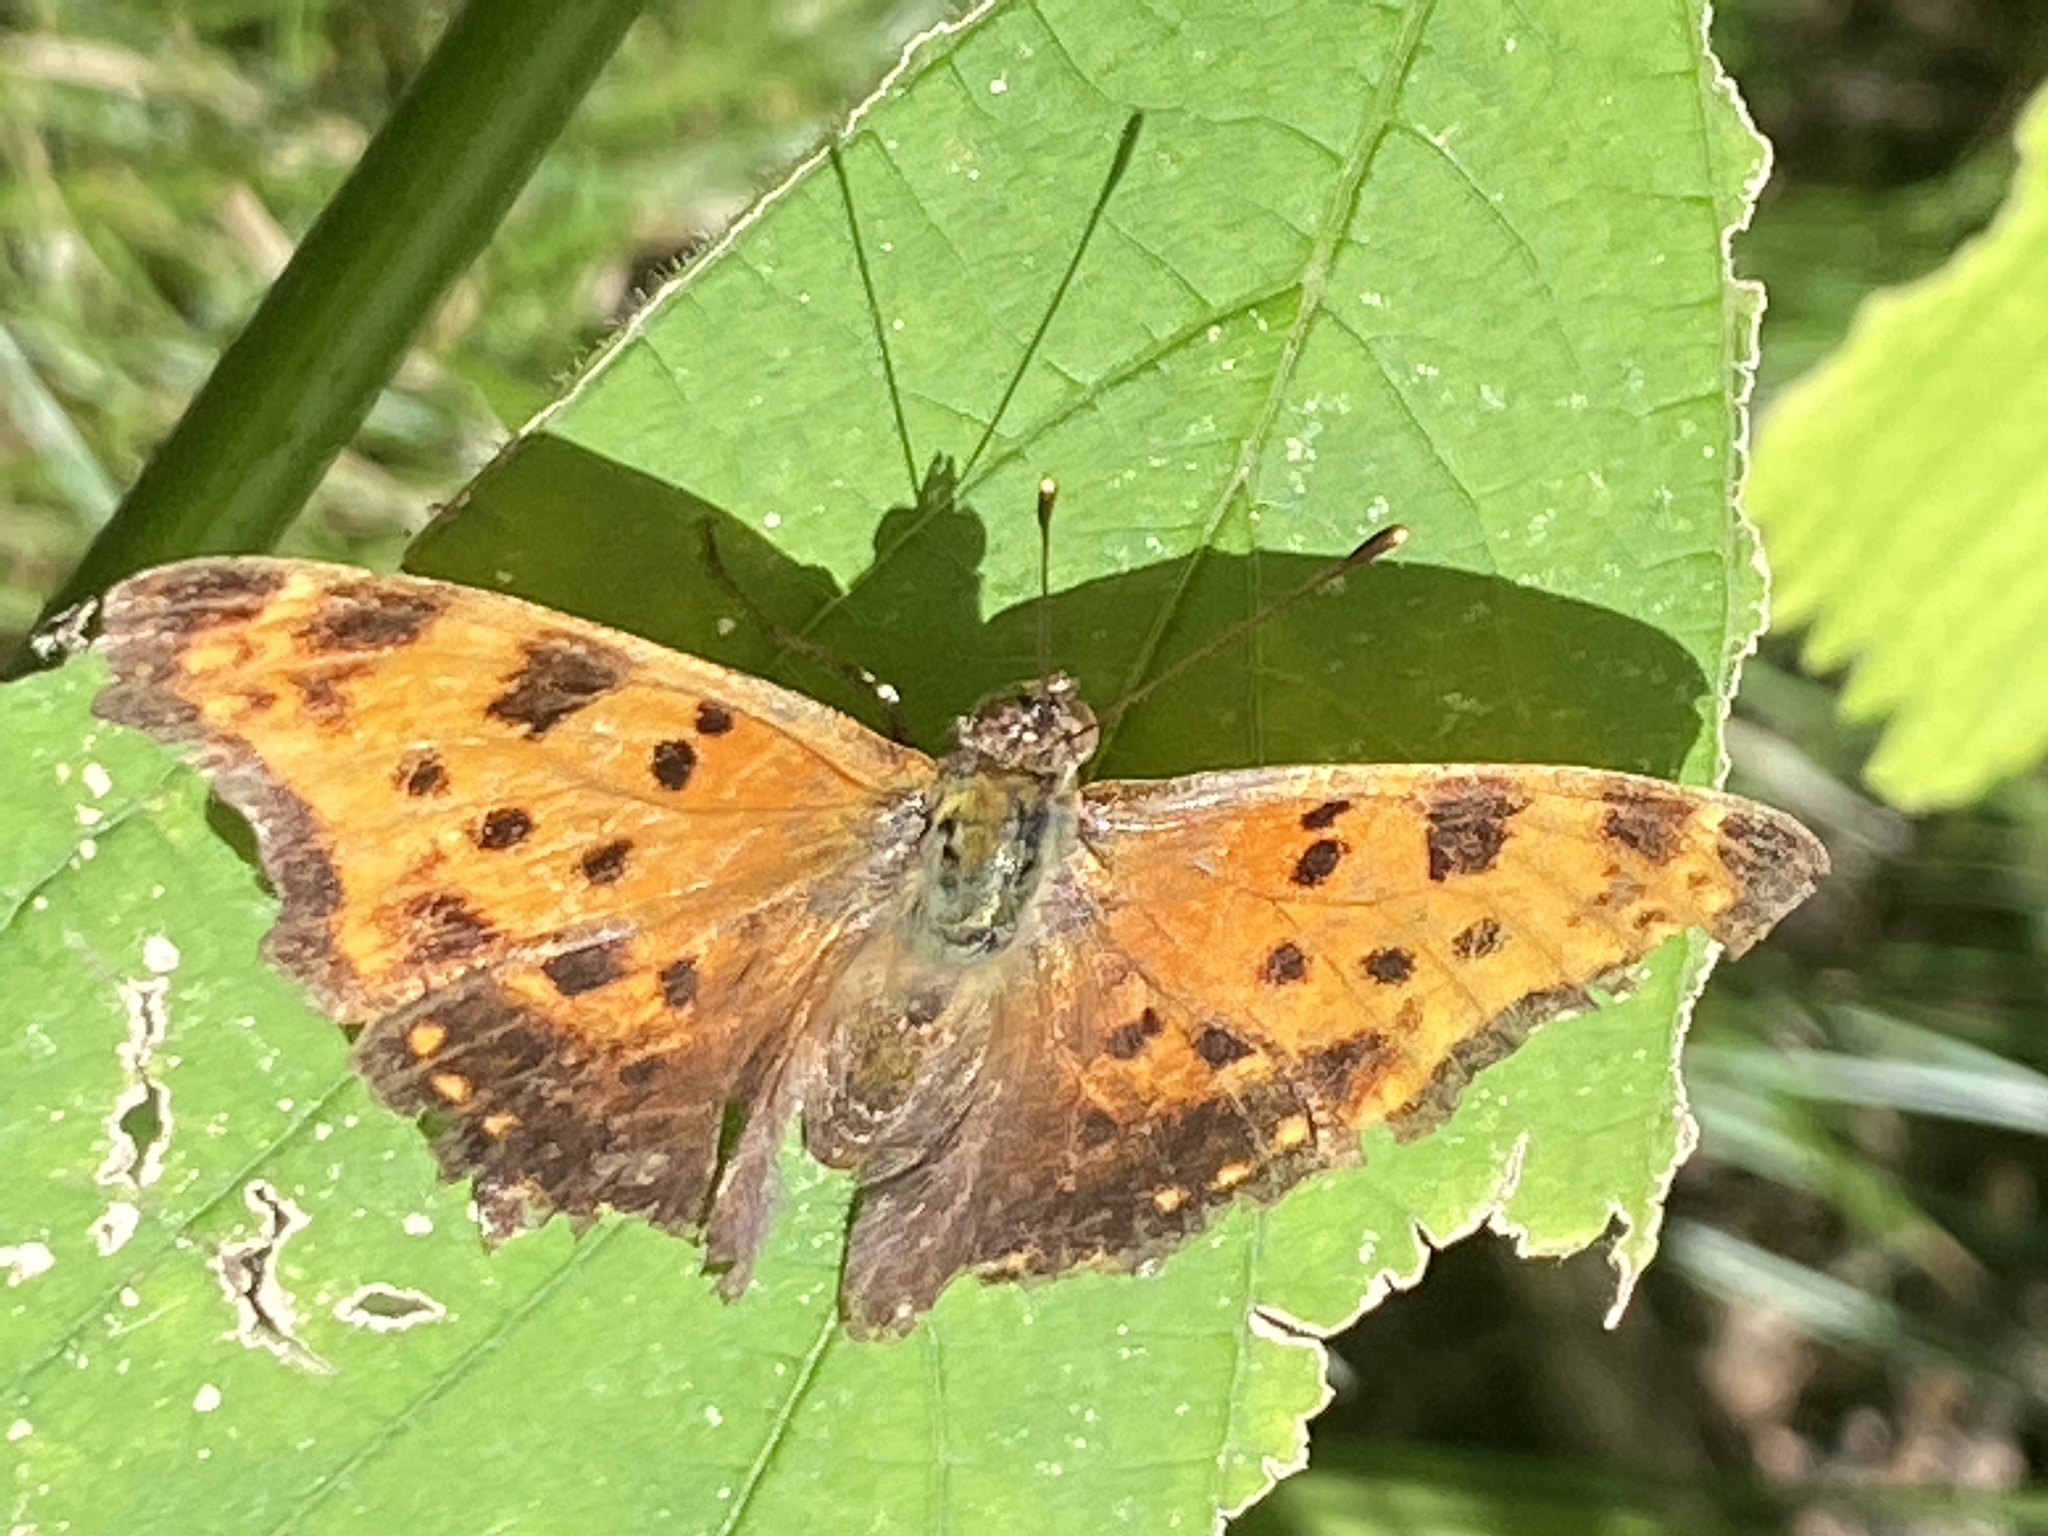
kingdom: Animalia
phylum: Arthropoda
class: Insecta
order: Lepidoptera
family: Nymphalidae
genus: Polygonia
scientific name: Polygonia comma
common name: Eastern comma
